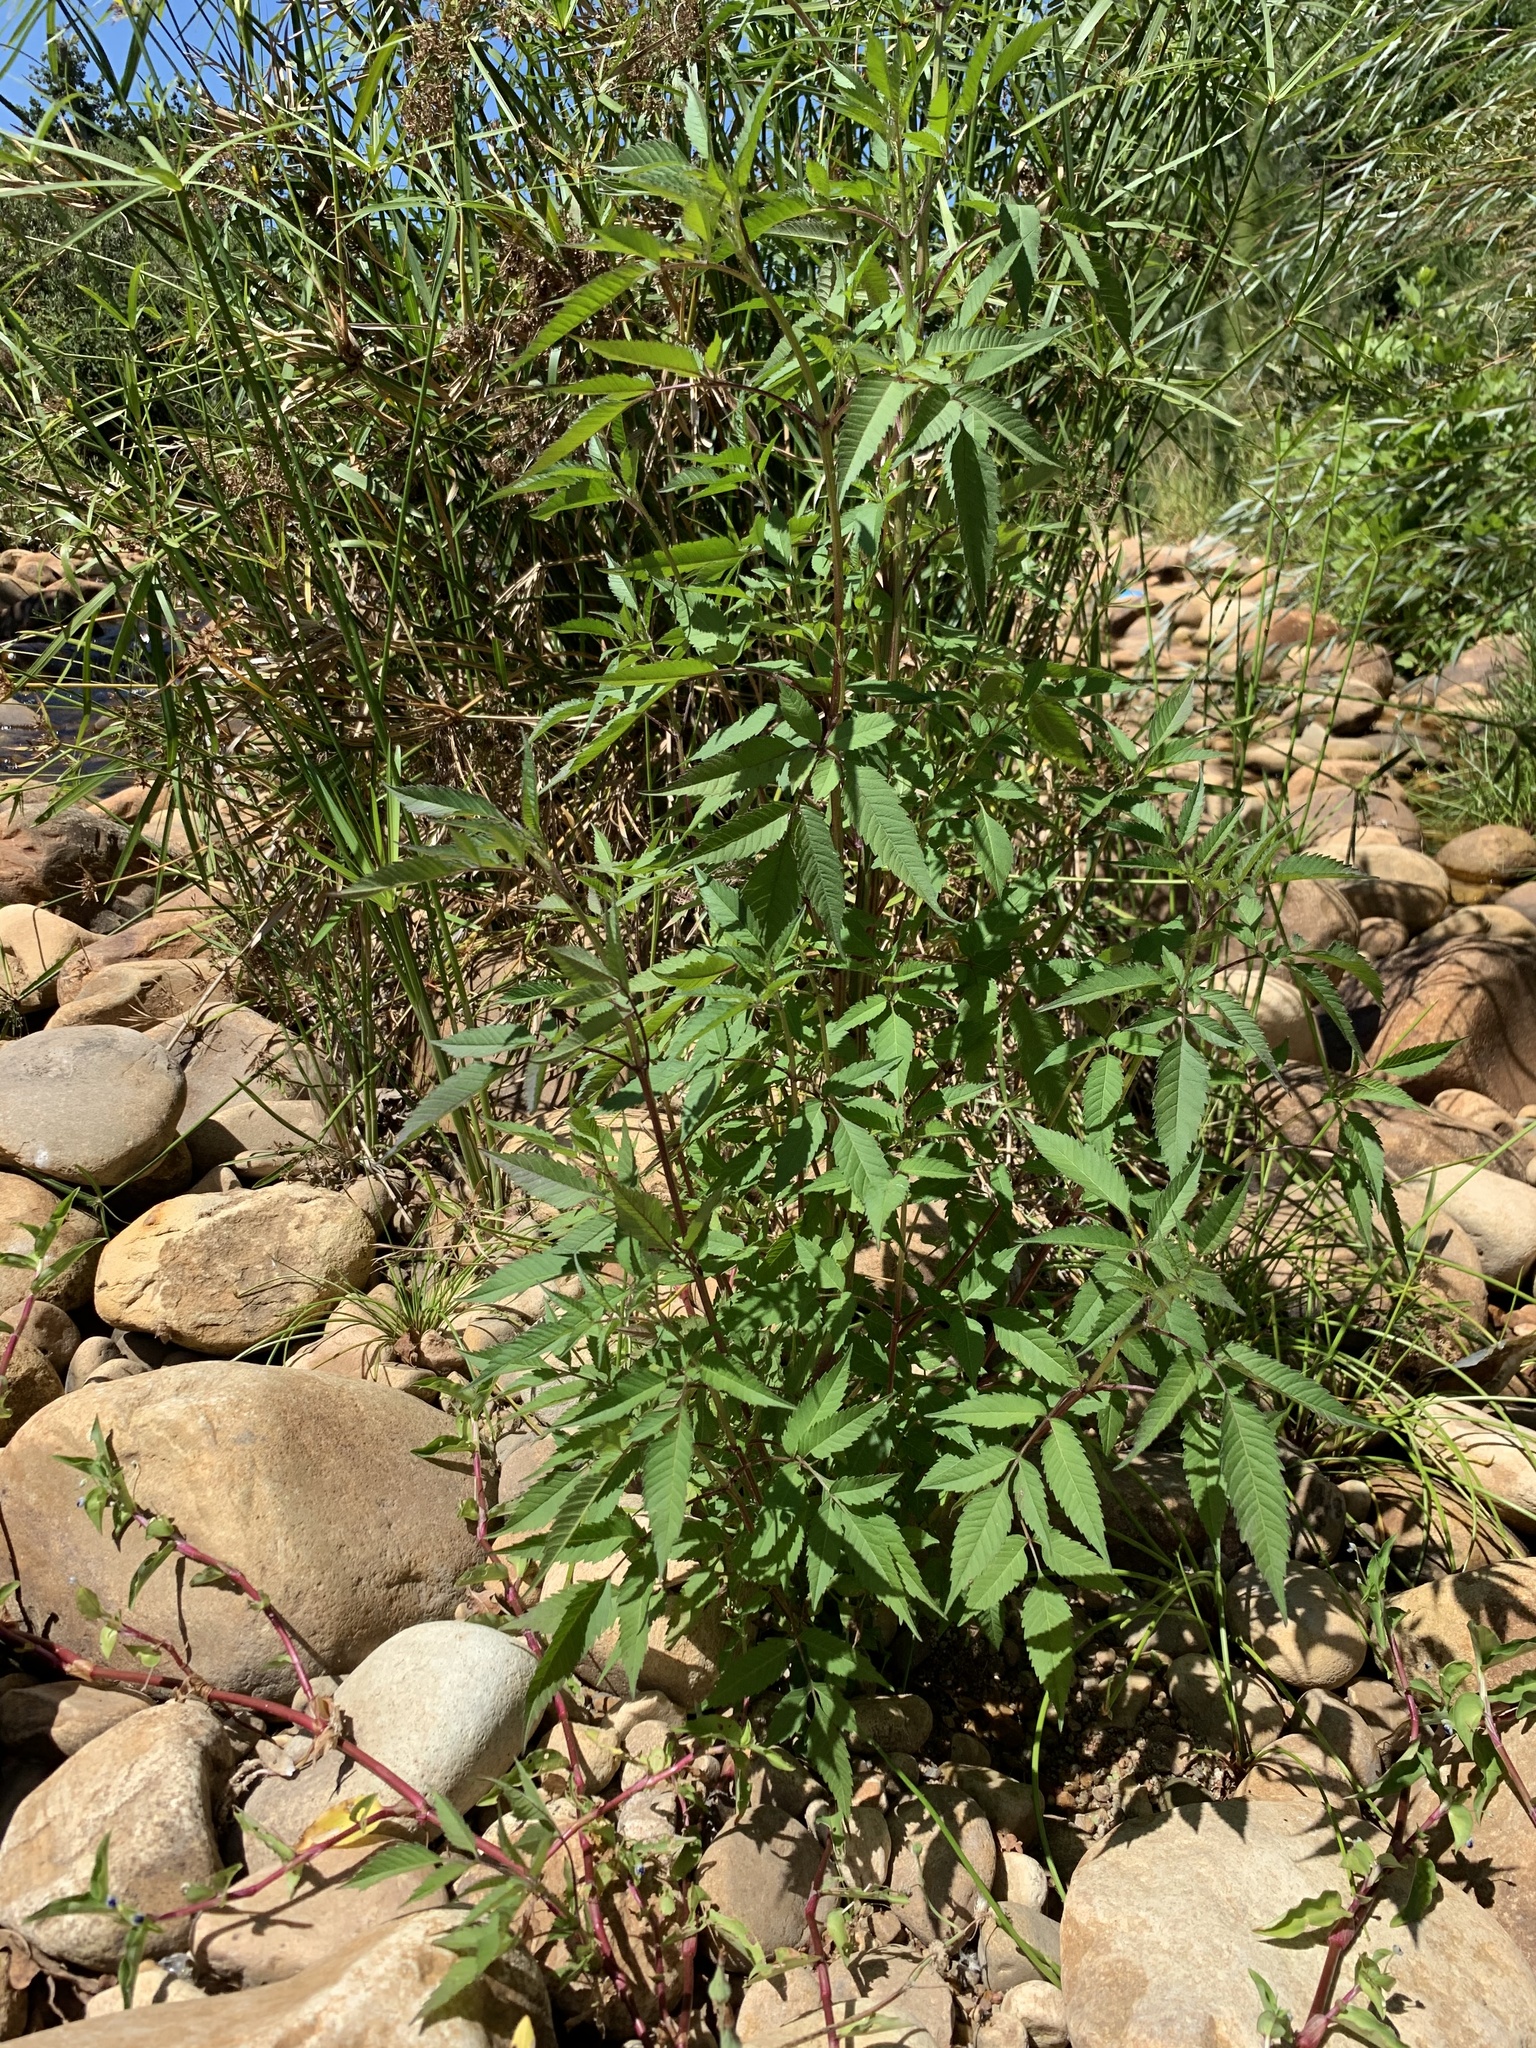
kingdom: Plantae
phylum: Tracheophyta
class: Magnoliopsida
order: Asterales
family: Asteraceae
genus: Bidens
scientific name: Bidens frondosa
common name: Beggarticks
